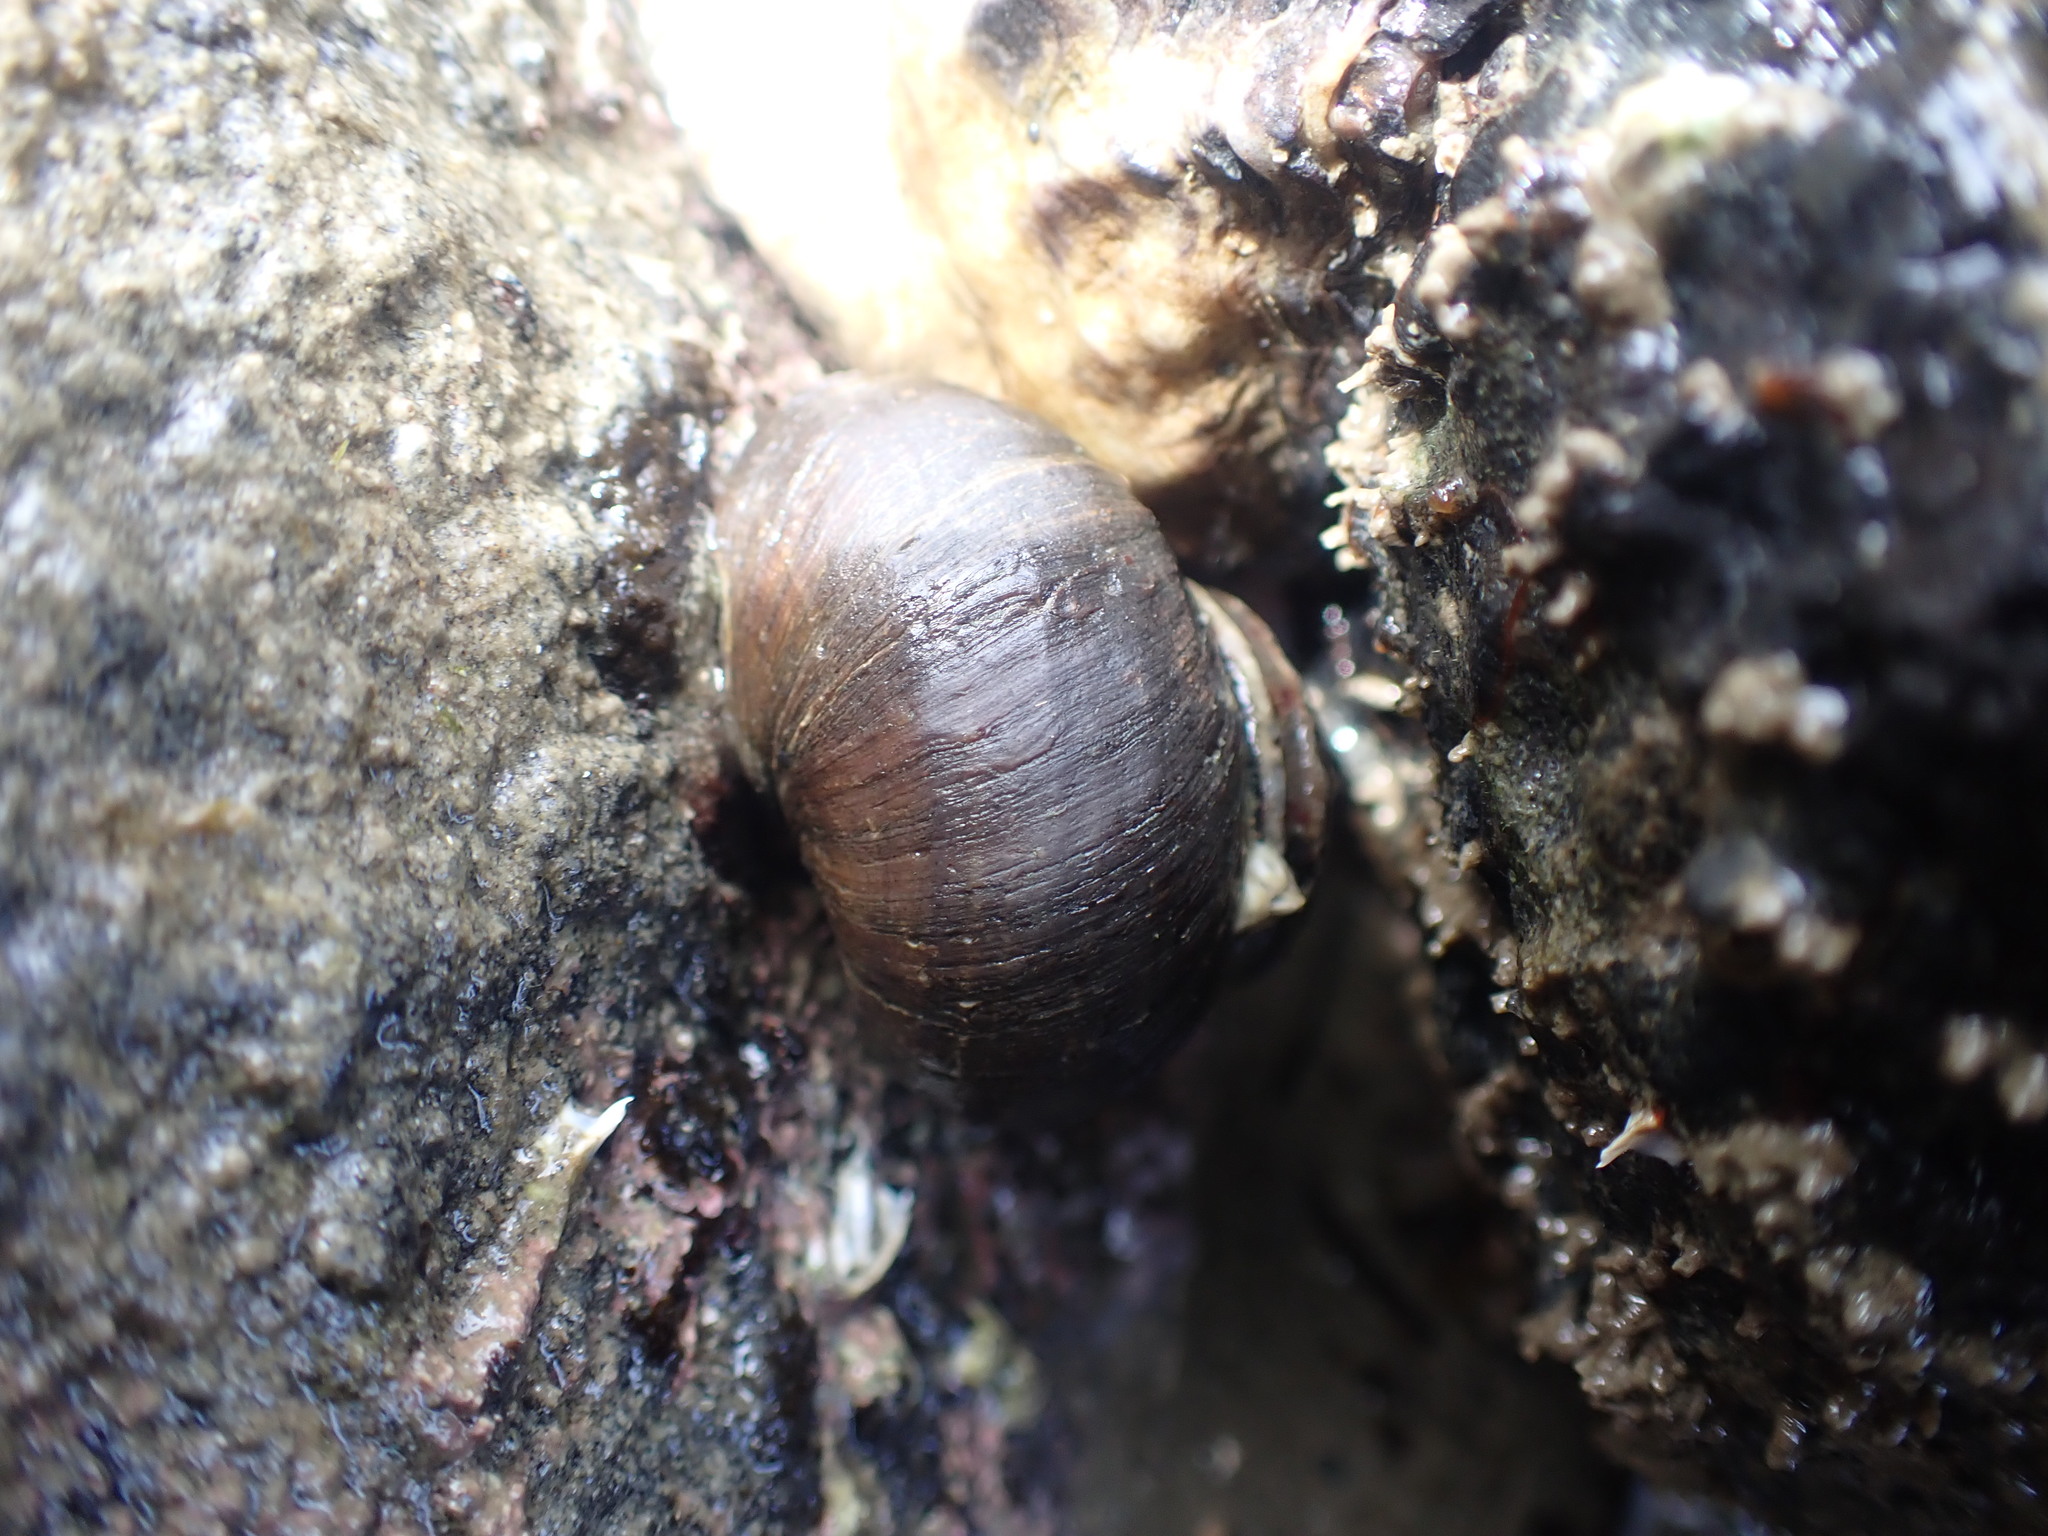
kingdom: Animalia
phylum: Mollusca
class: Gastropoda
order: Trochida
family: Turbinidae
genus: Lunella
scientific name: Lunella smaragda
